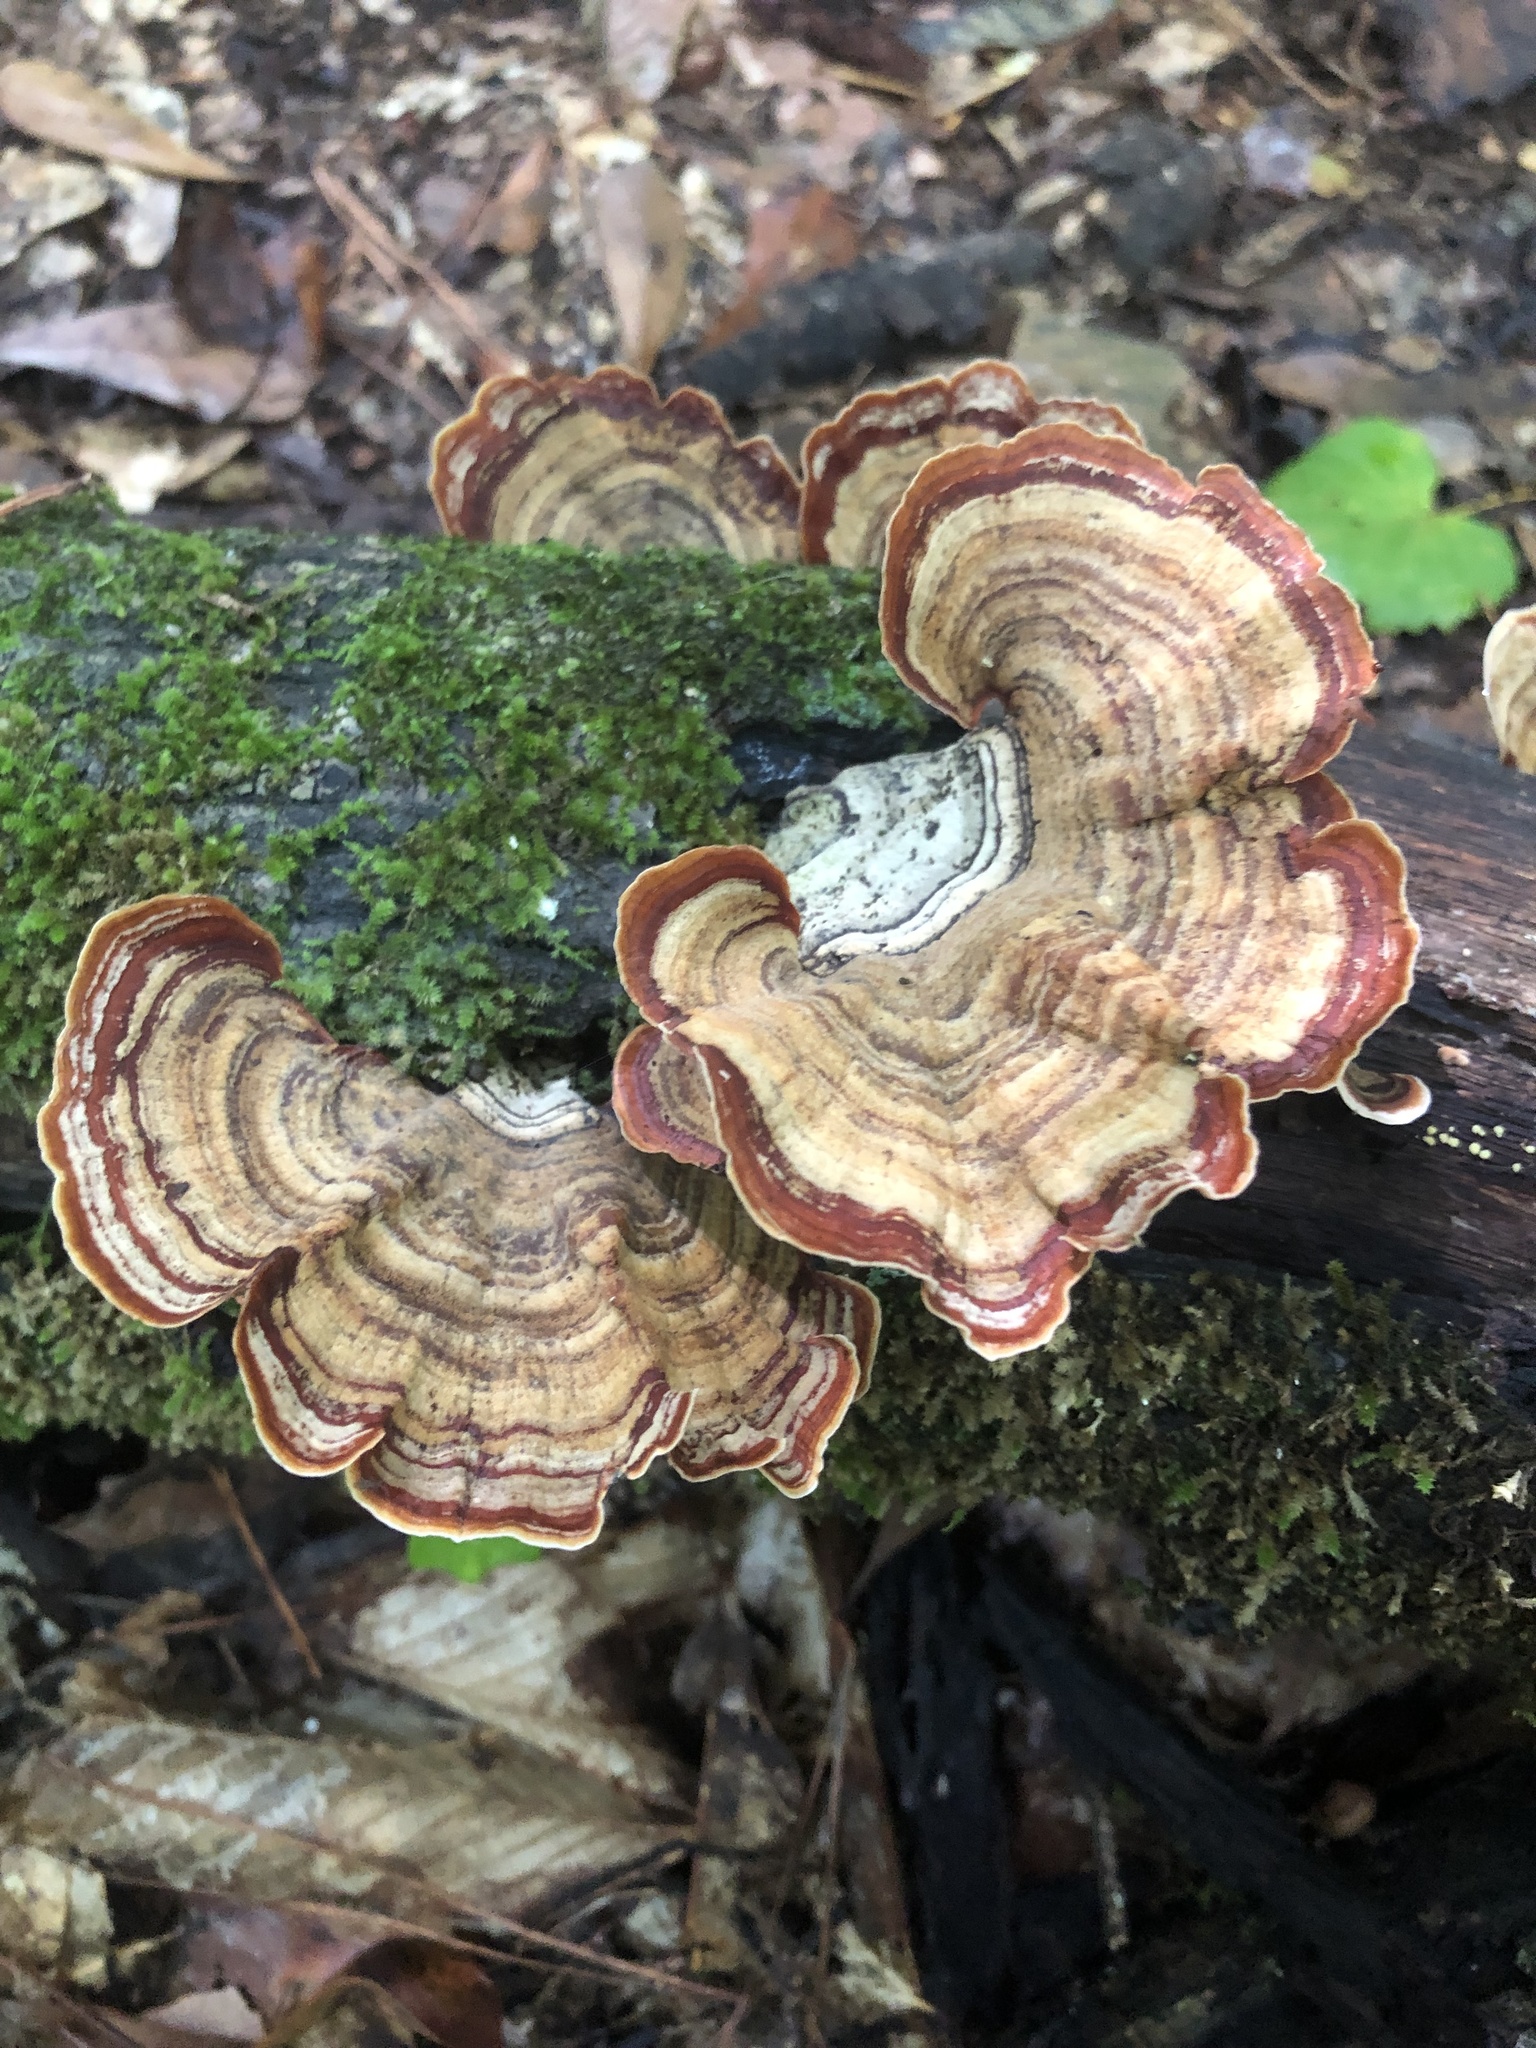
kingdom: Fungi
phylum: Basidiomycota
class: Agaricomycetes
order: Russulales
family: Stereaceae
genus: Stereum
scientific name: Stereum lobatum
